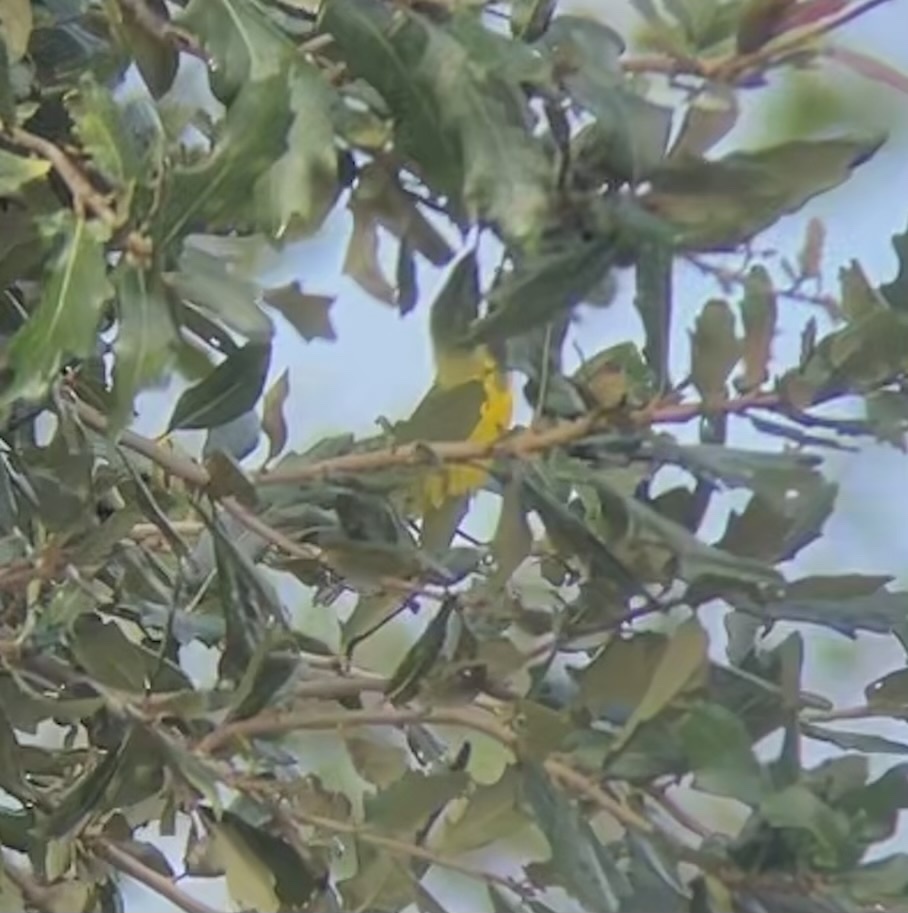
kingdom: Animalia
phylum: Chordata
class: Aves
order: Passeriformes
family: Parulidae
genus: Setophaga
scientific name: Setophaga discolor
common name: Prairie warbler
